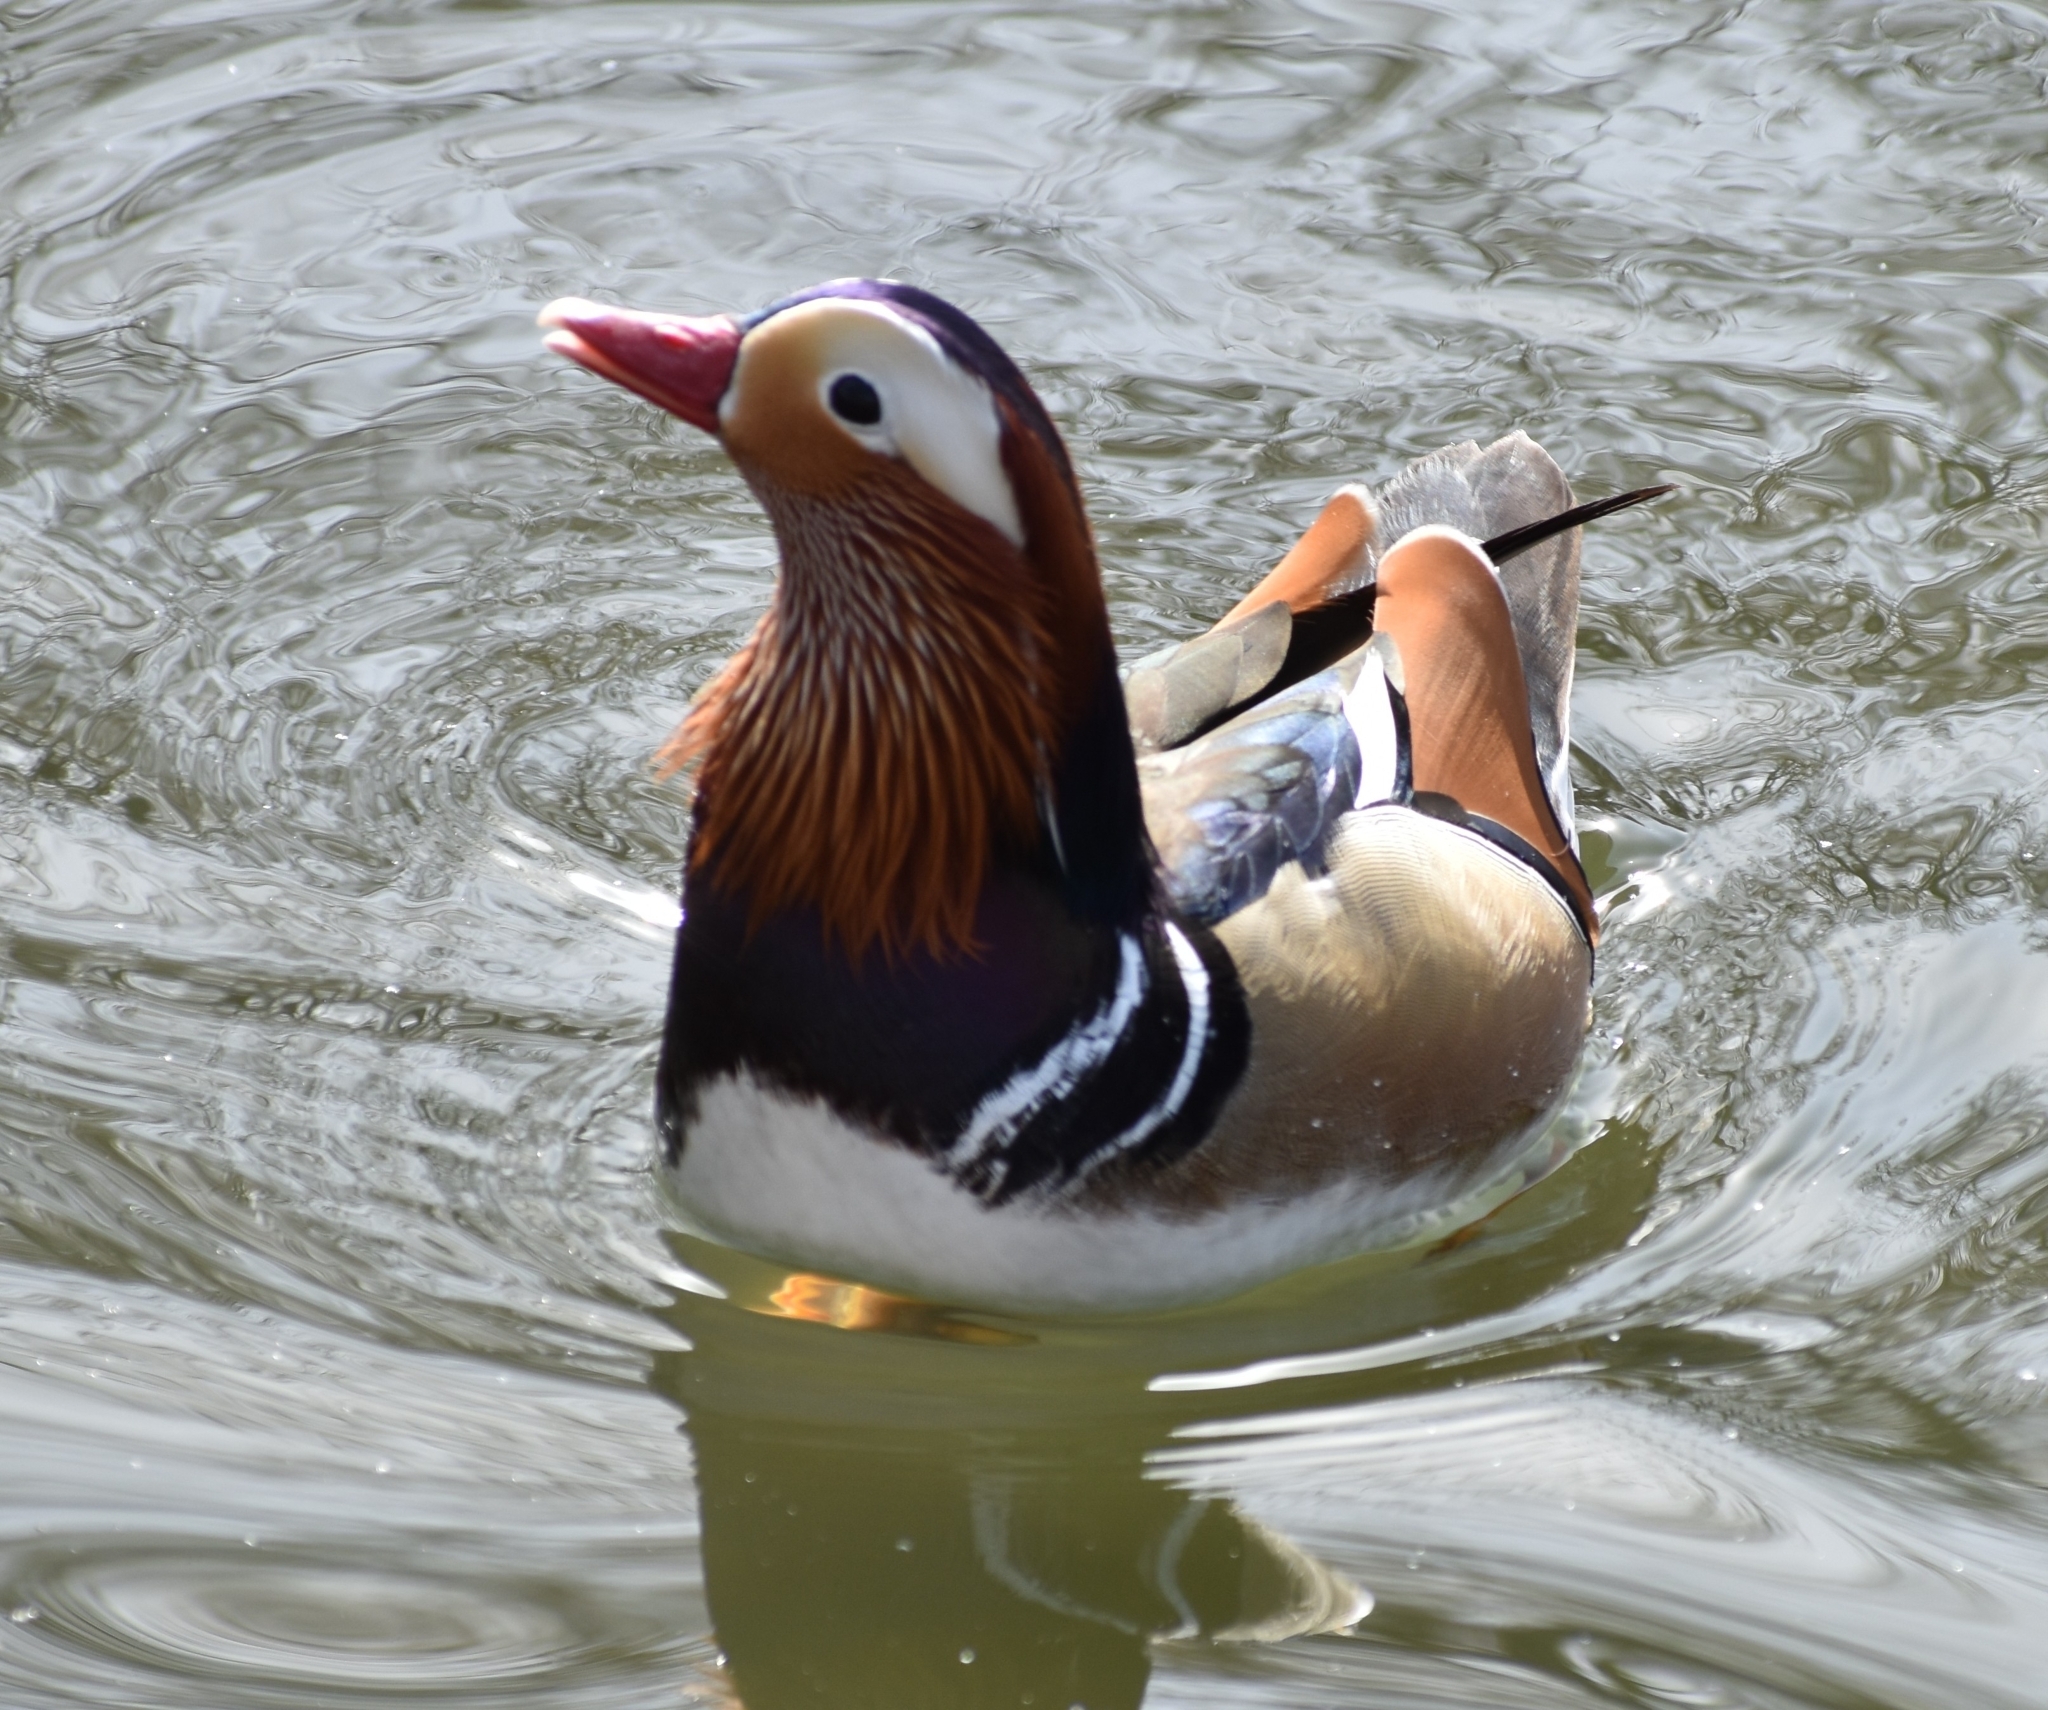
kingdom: Animalia
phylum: Chordata
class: Aves
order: Anseriformes
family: Anatidae
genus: Aix
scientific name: Aix galericulata
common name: Mandarin duck
